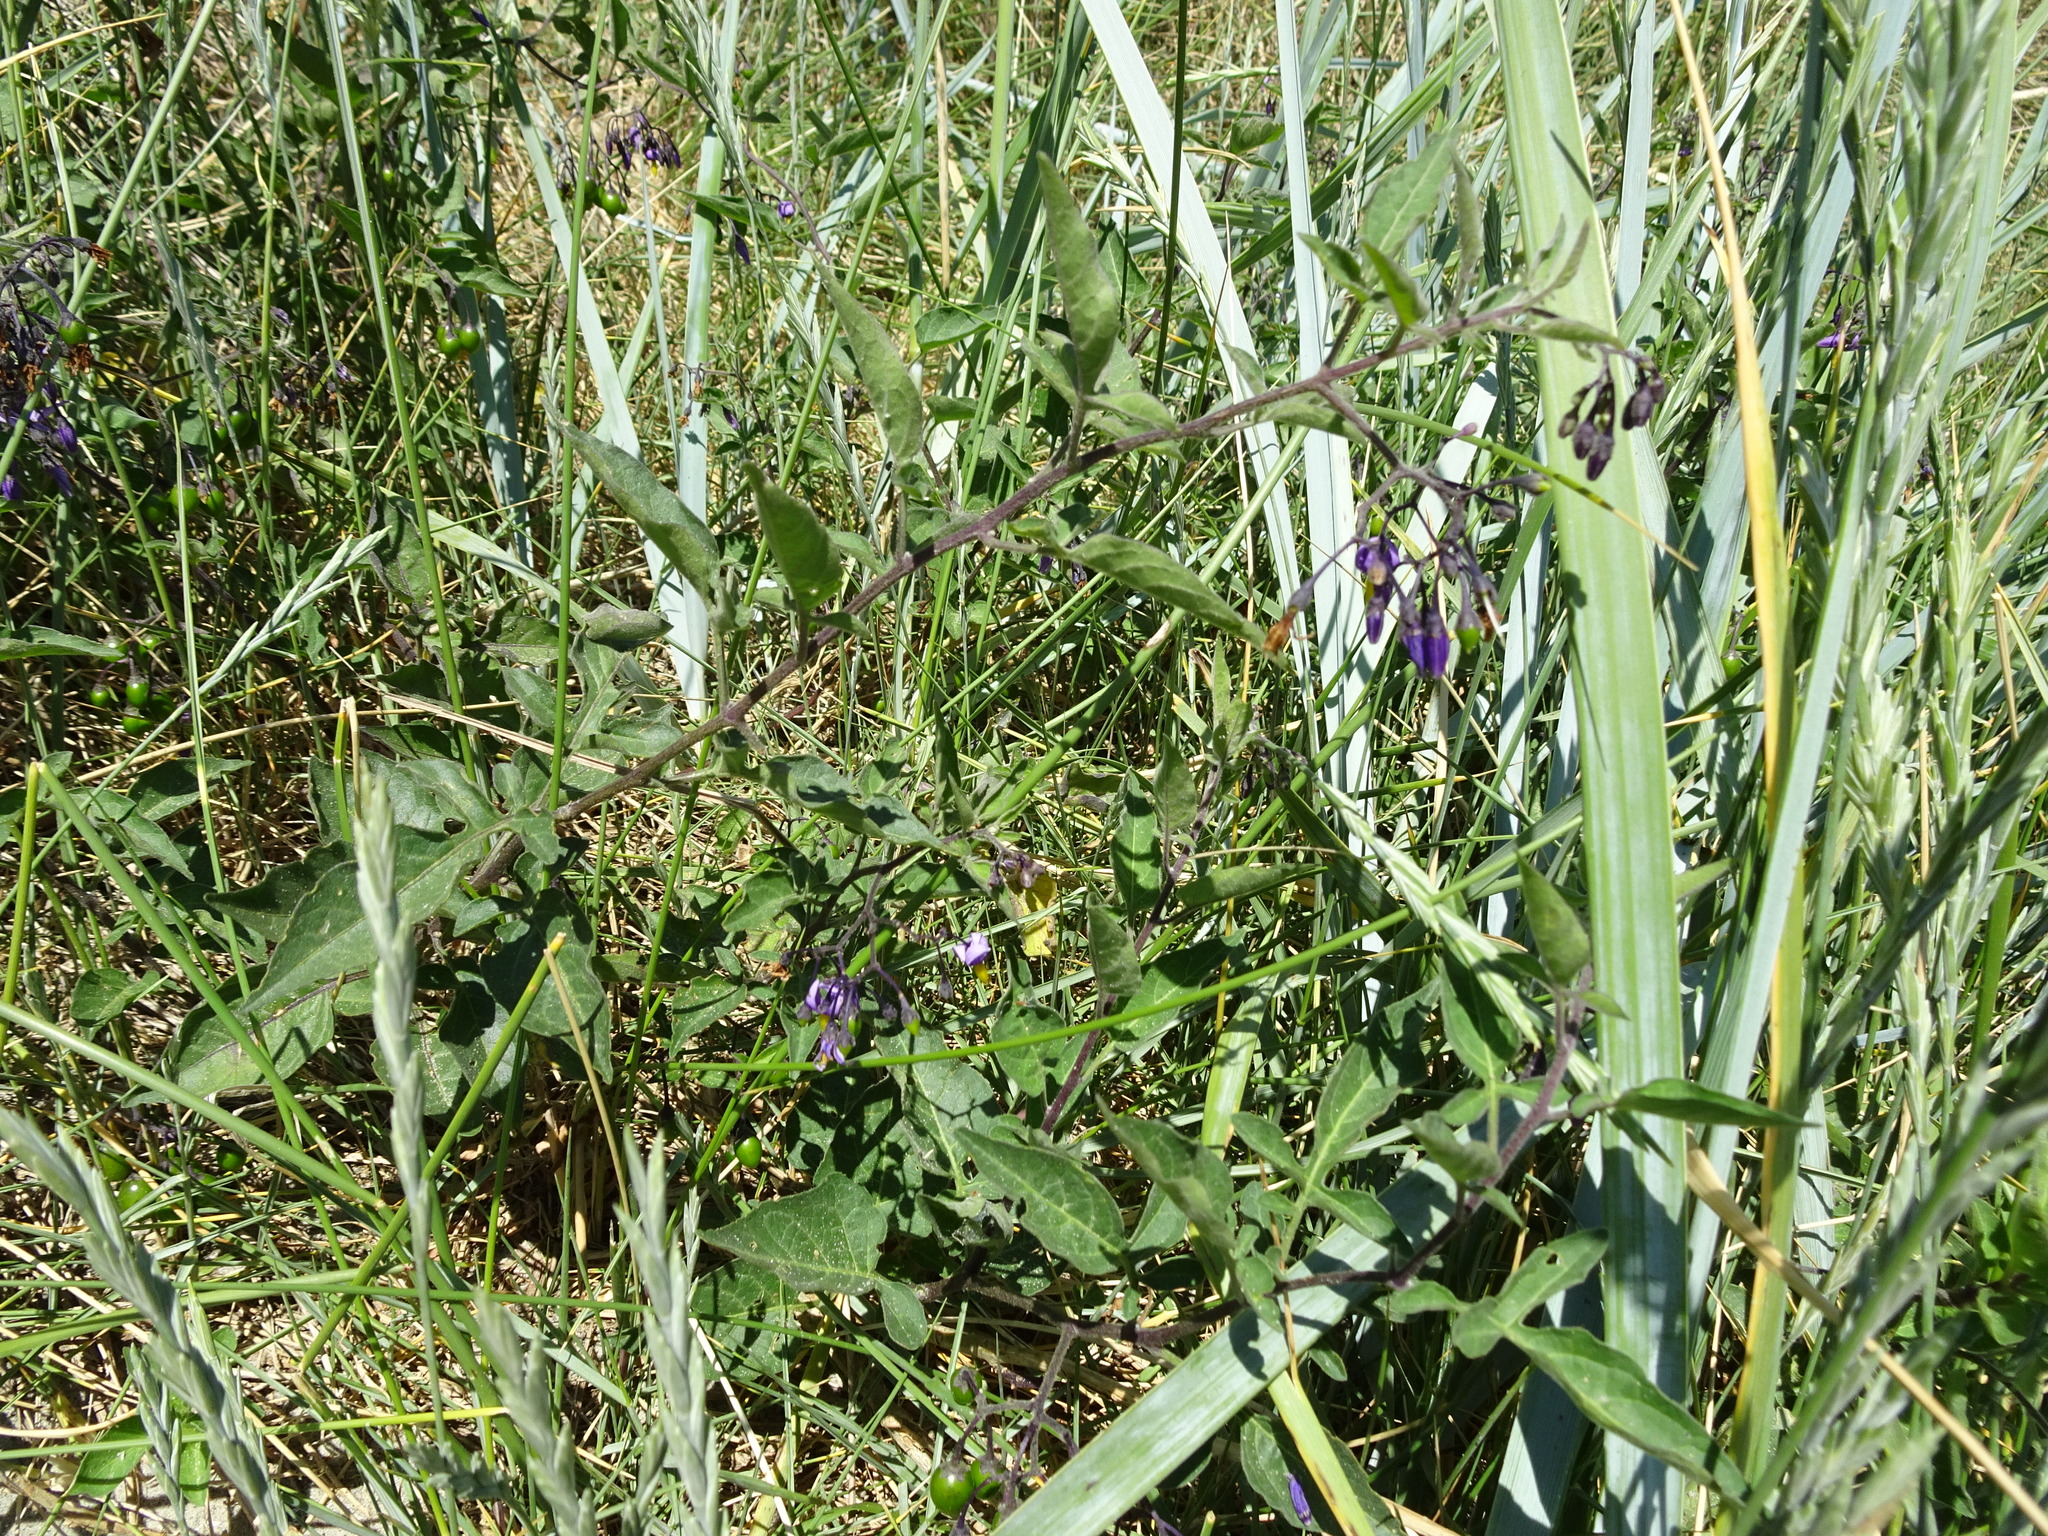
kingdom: Plantae
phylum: Tracheophyta
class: Magnoliopsida
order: Solanales
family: Solanaceae
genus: Solanum
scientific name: Solanum dulcamara
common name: Climbing nightshade
